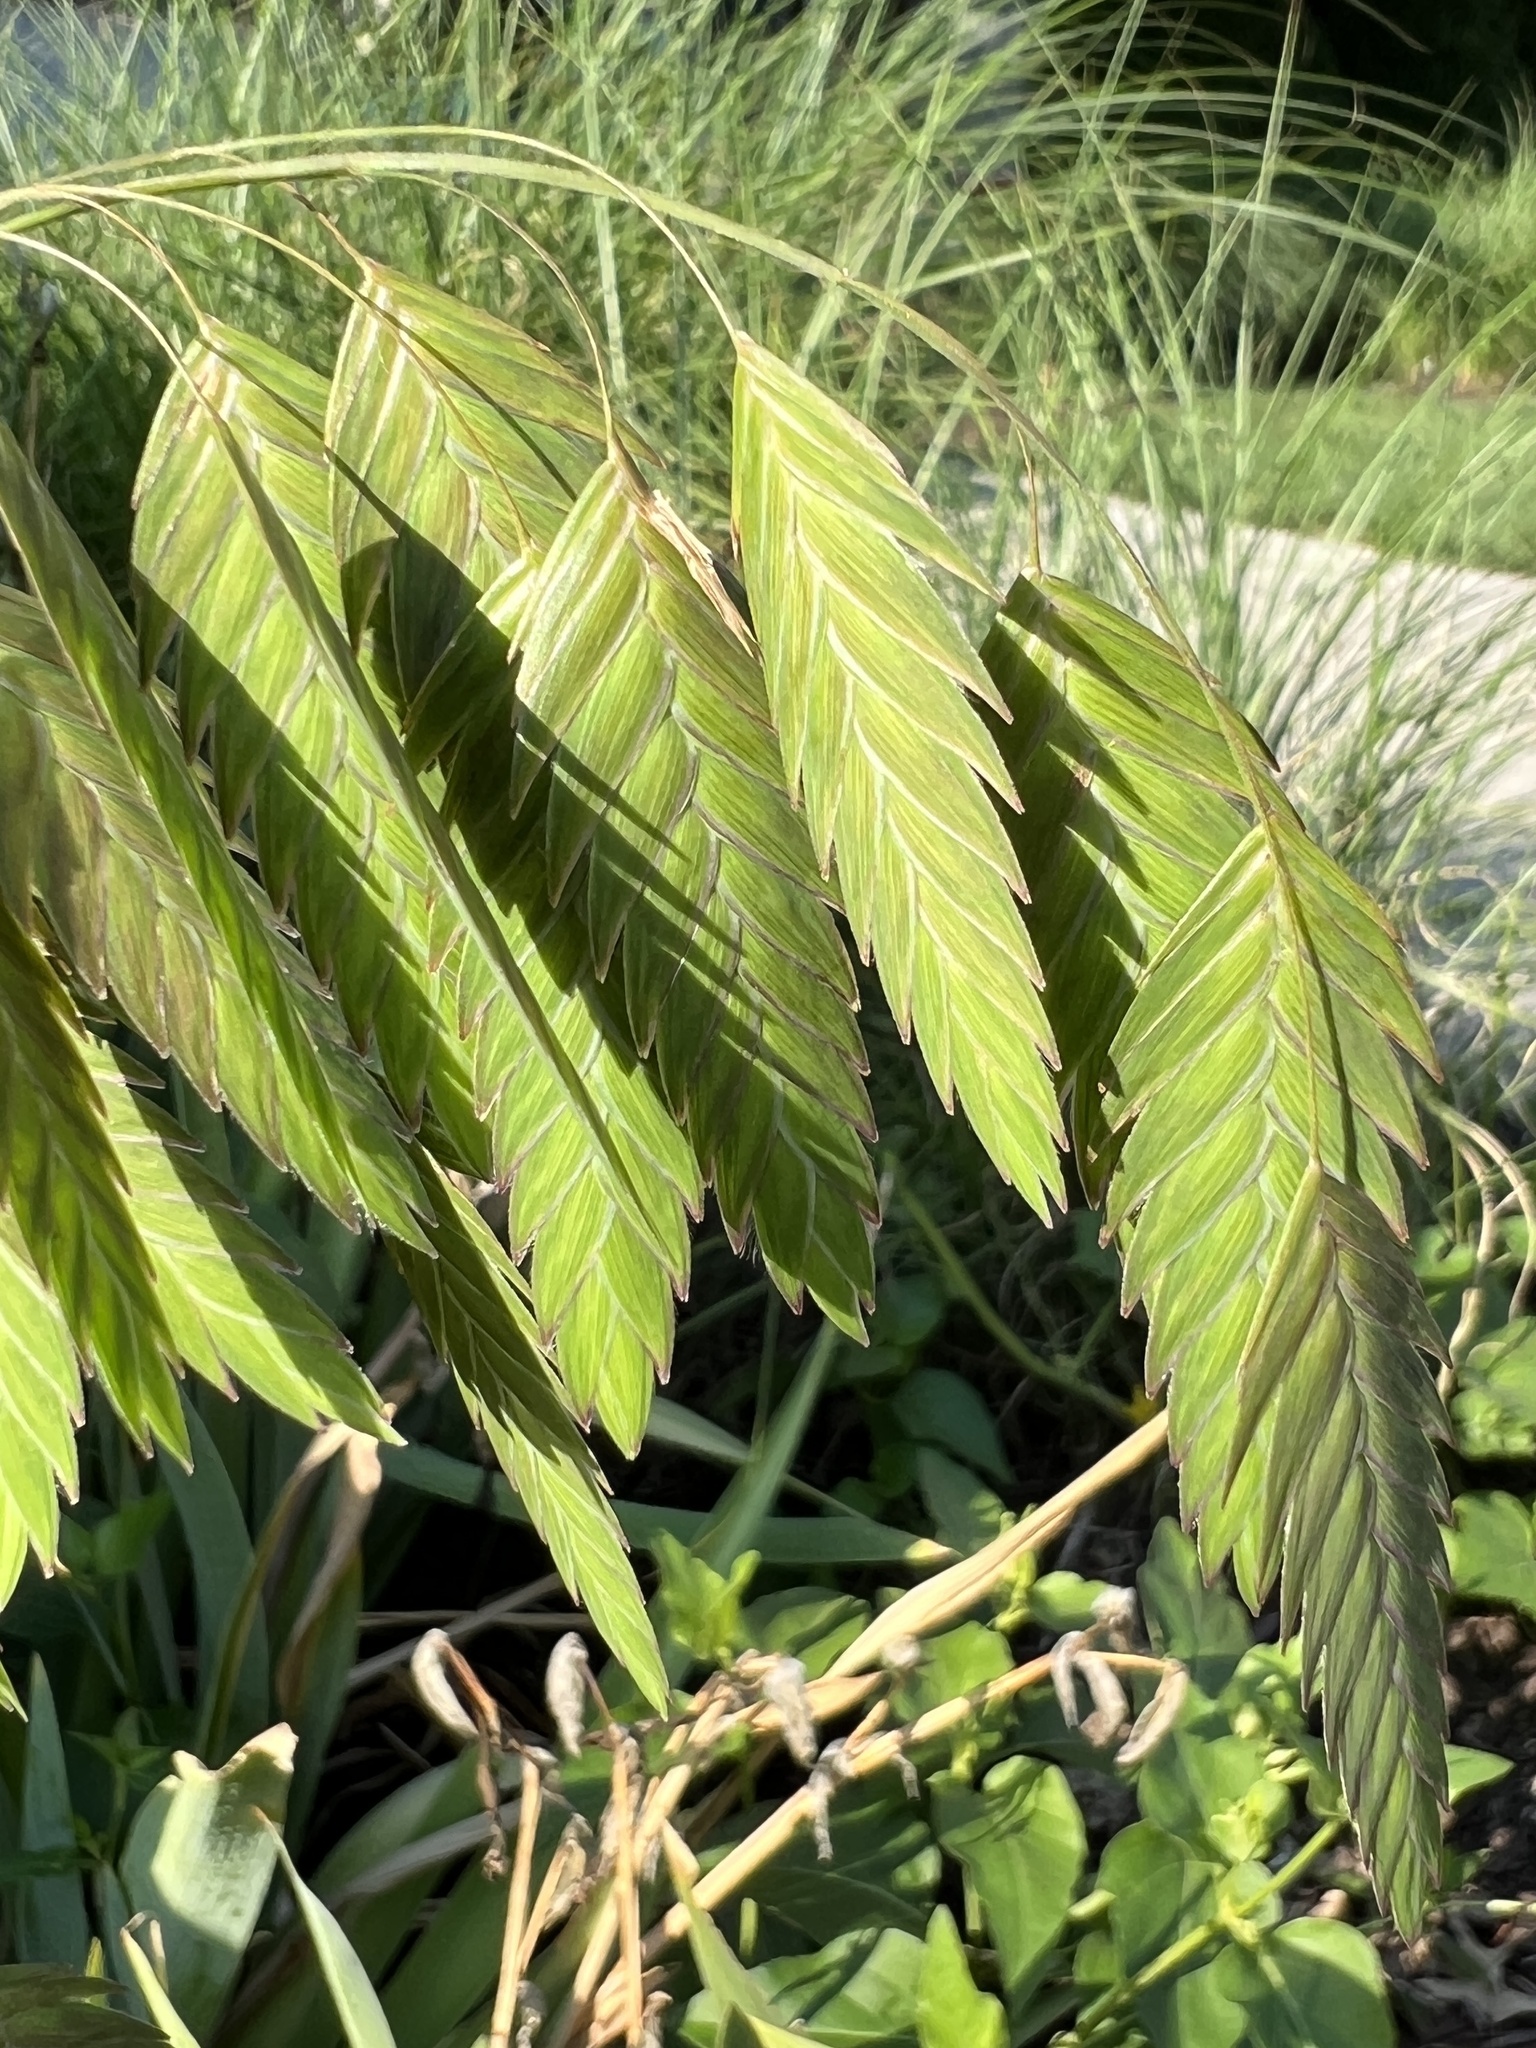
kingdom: Plantae
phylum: Tracheophyta
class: Liliopsida
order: Poales
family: Poaceae
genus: Chasmanthium
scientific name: Chasmanthium latifolium
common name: Broad-leaved chasmanthium
